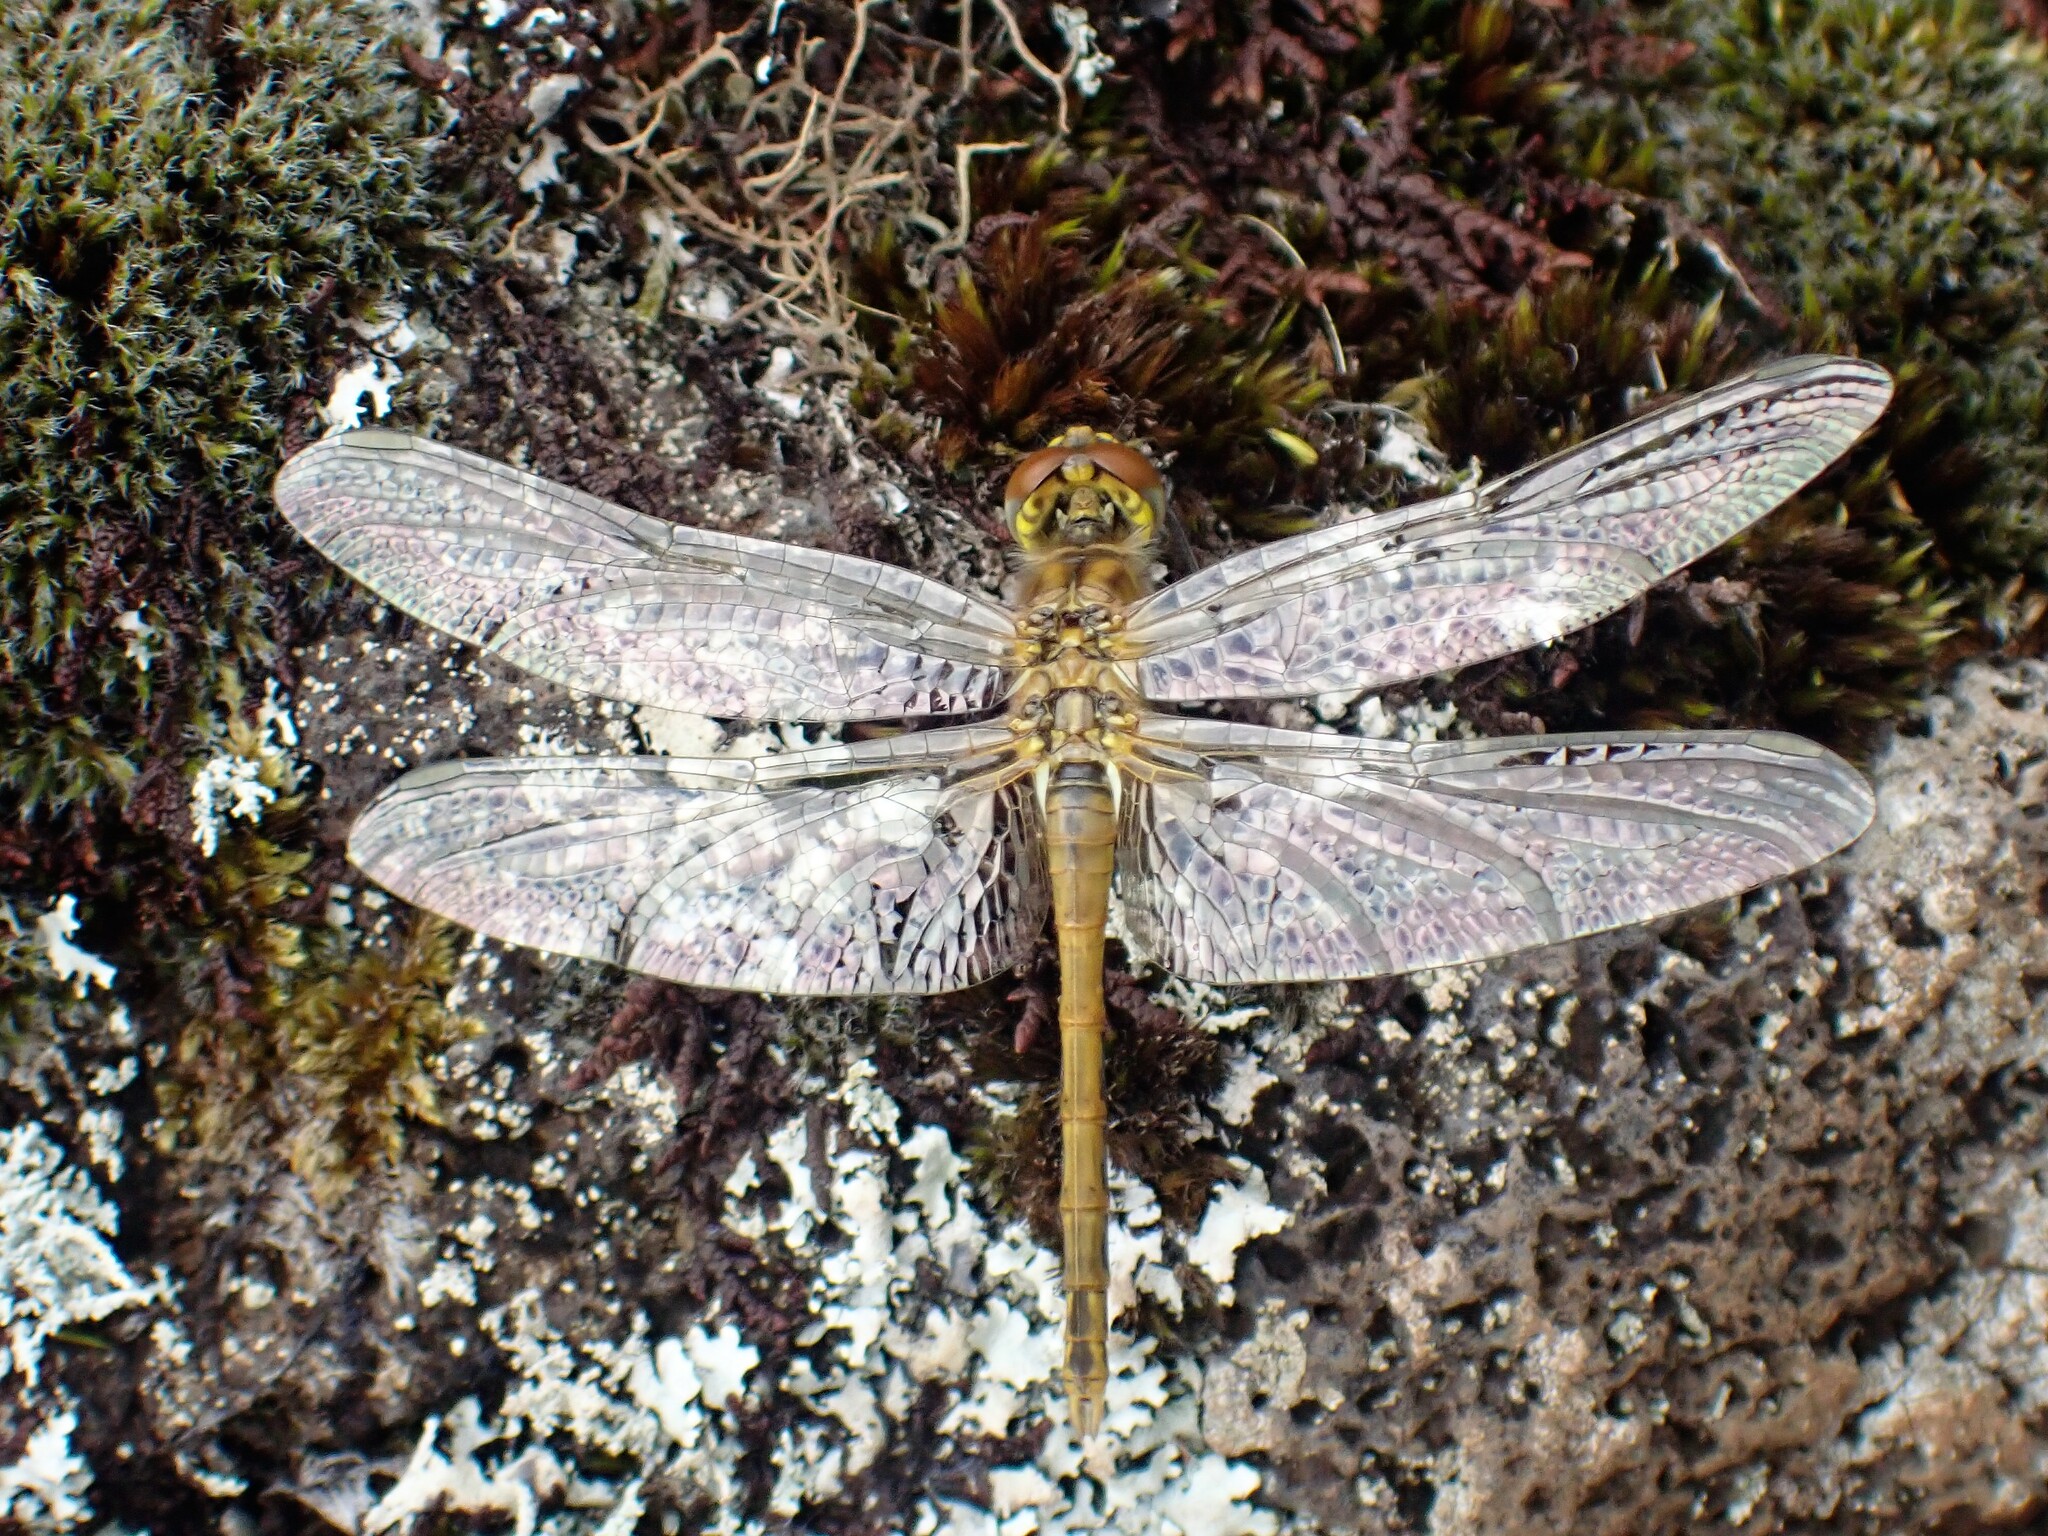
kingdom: Animalia
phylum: Arthropoda
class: Insecta
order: Odonata
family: Libellulidae
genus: Sympetrum
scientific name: Sympetrum fonscolombii
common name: Red-veined darter
